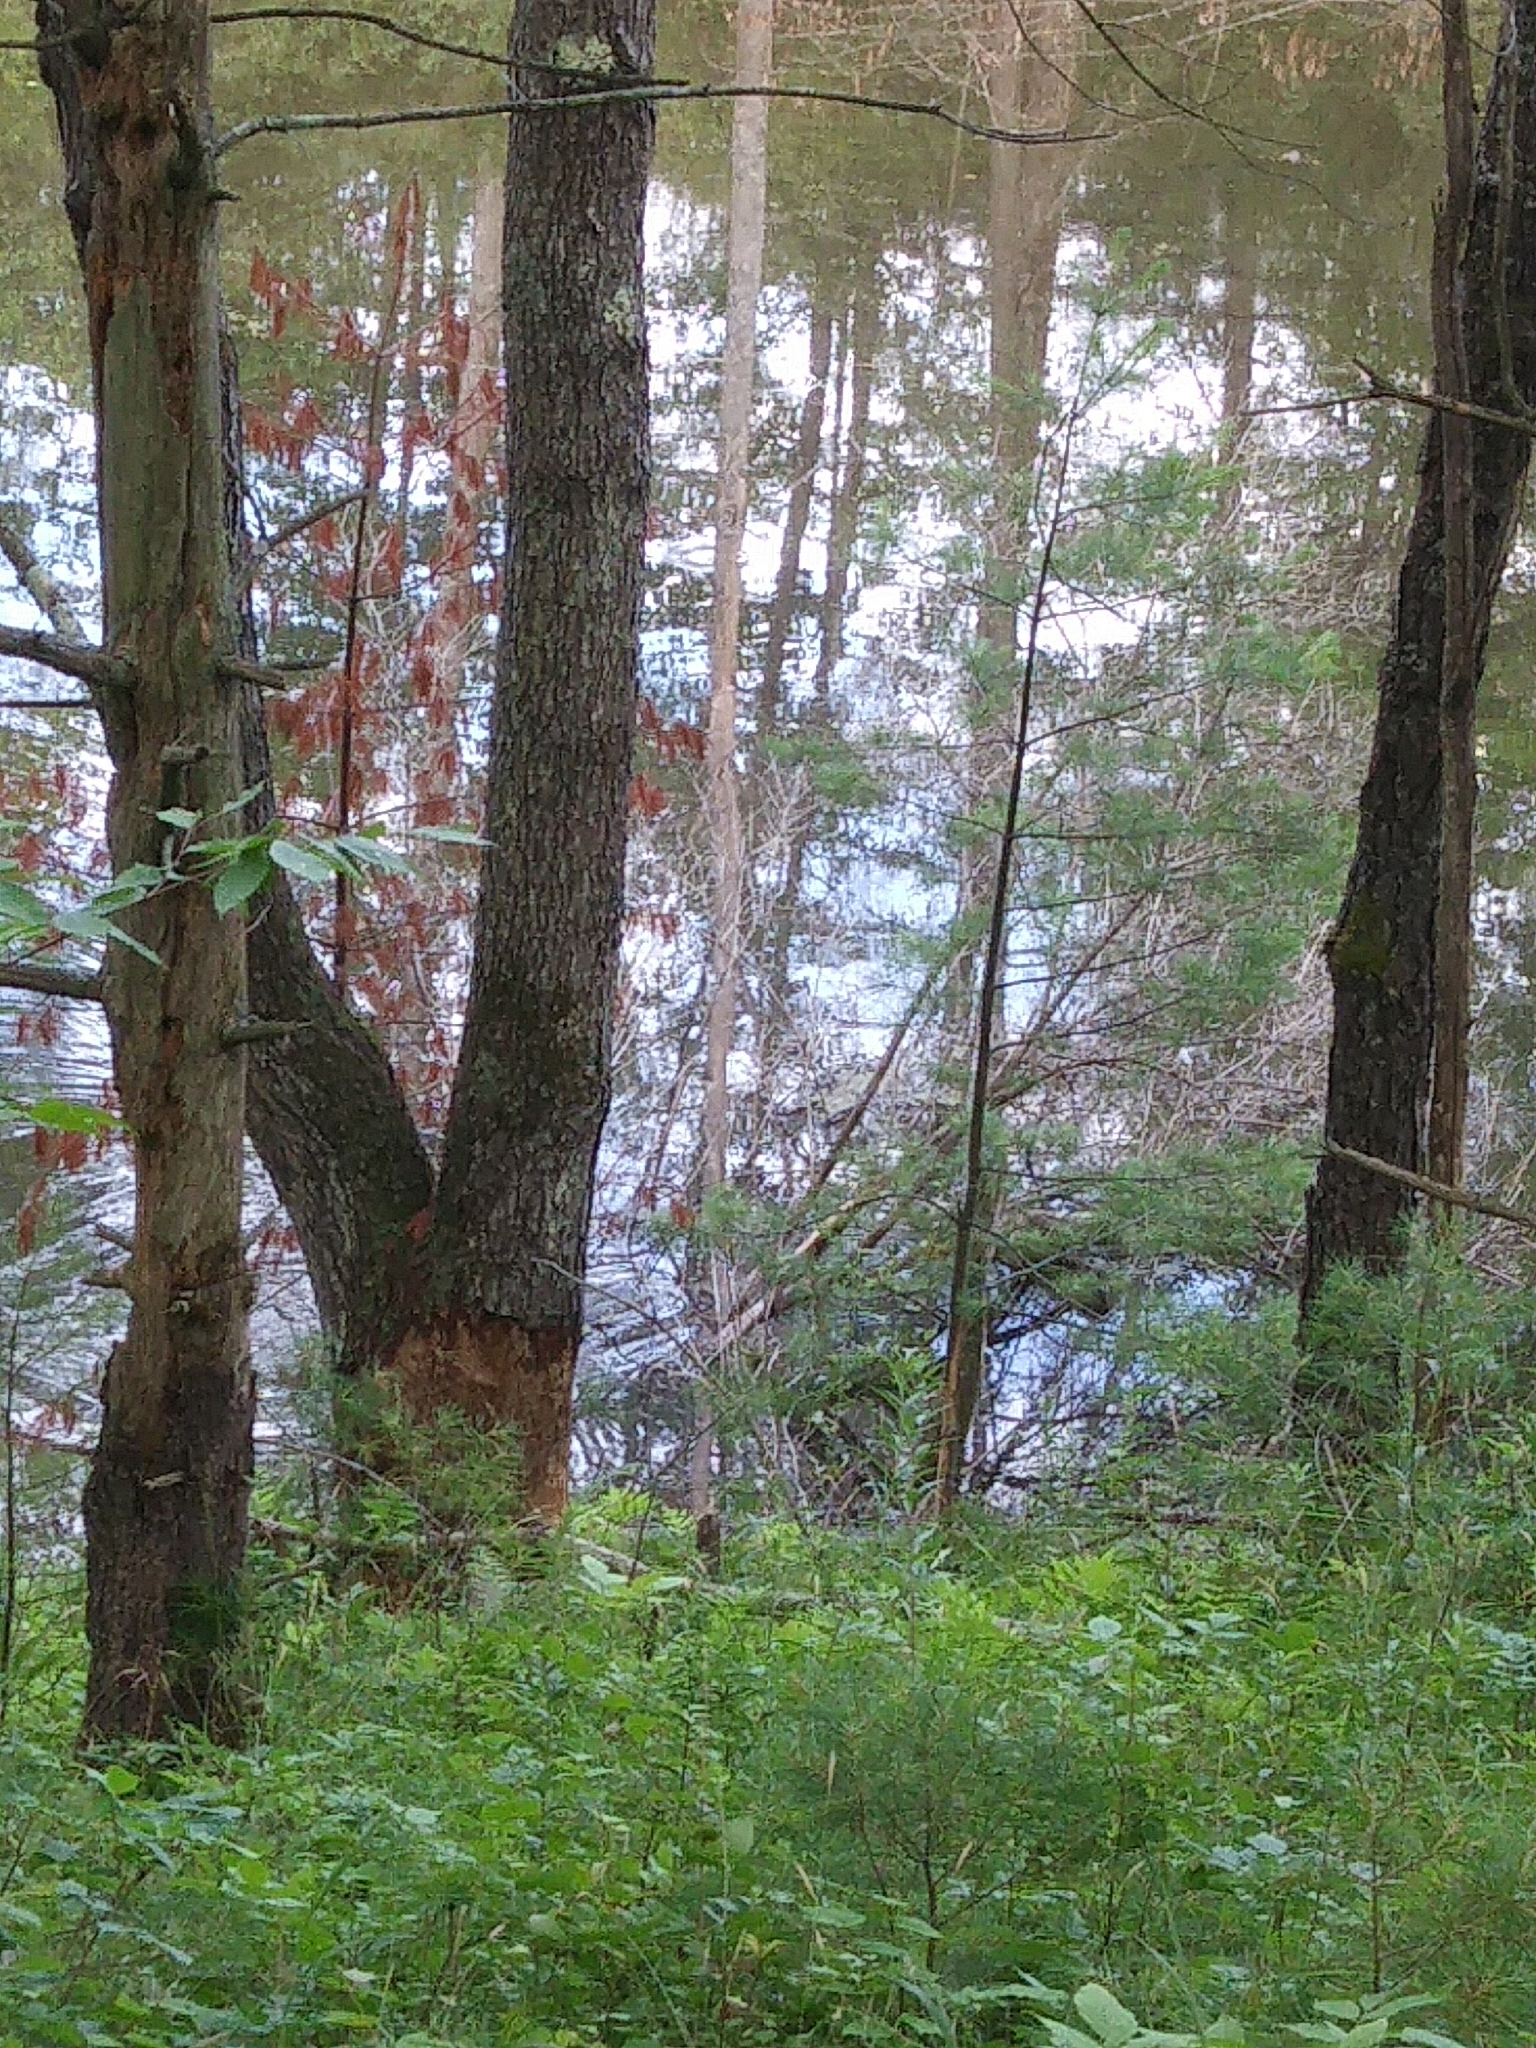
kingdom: Animalia
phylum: Chordata
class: Mammalia
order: Rodentia
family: Castoridae
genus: Castor
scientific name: Castor canadensis
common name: American beaver
